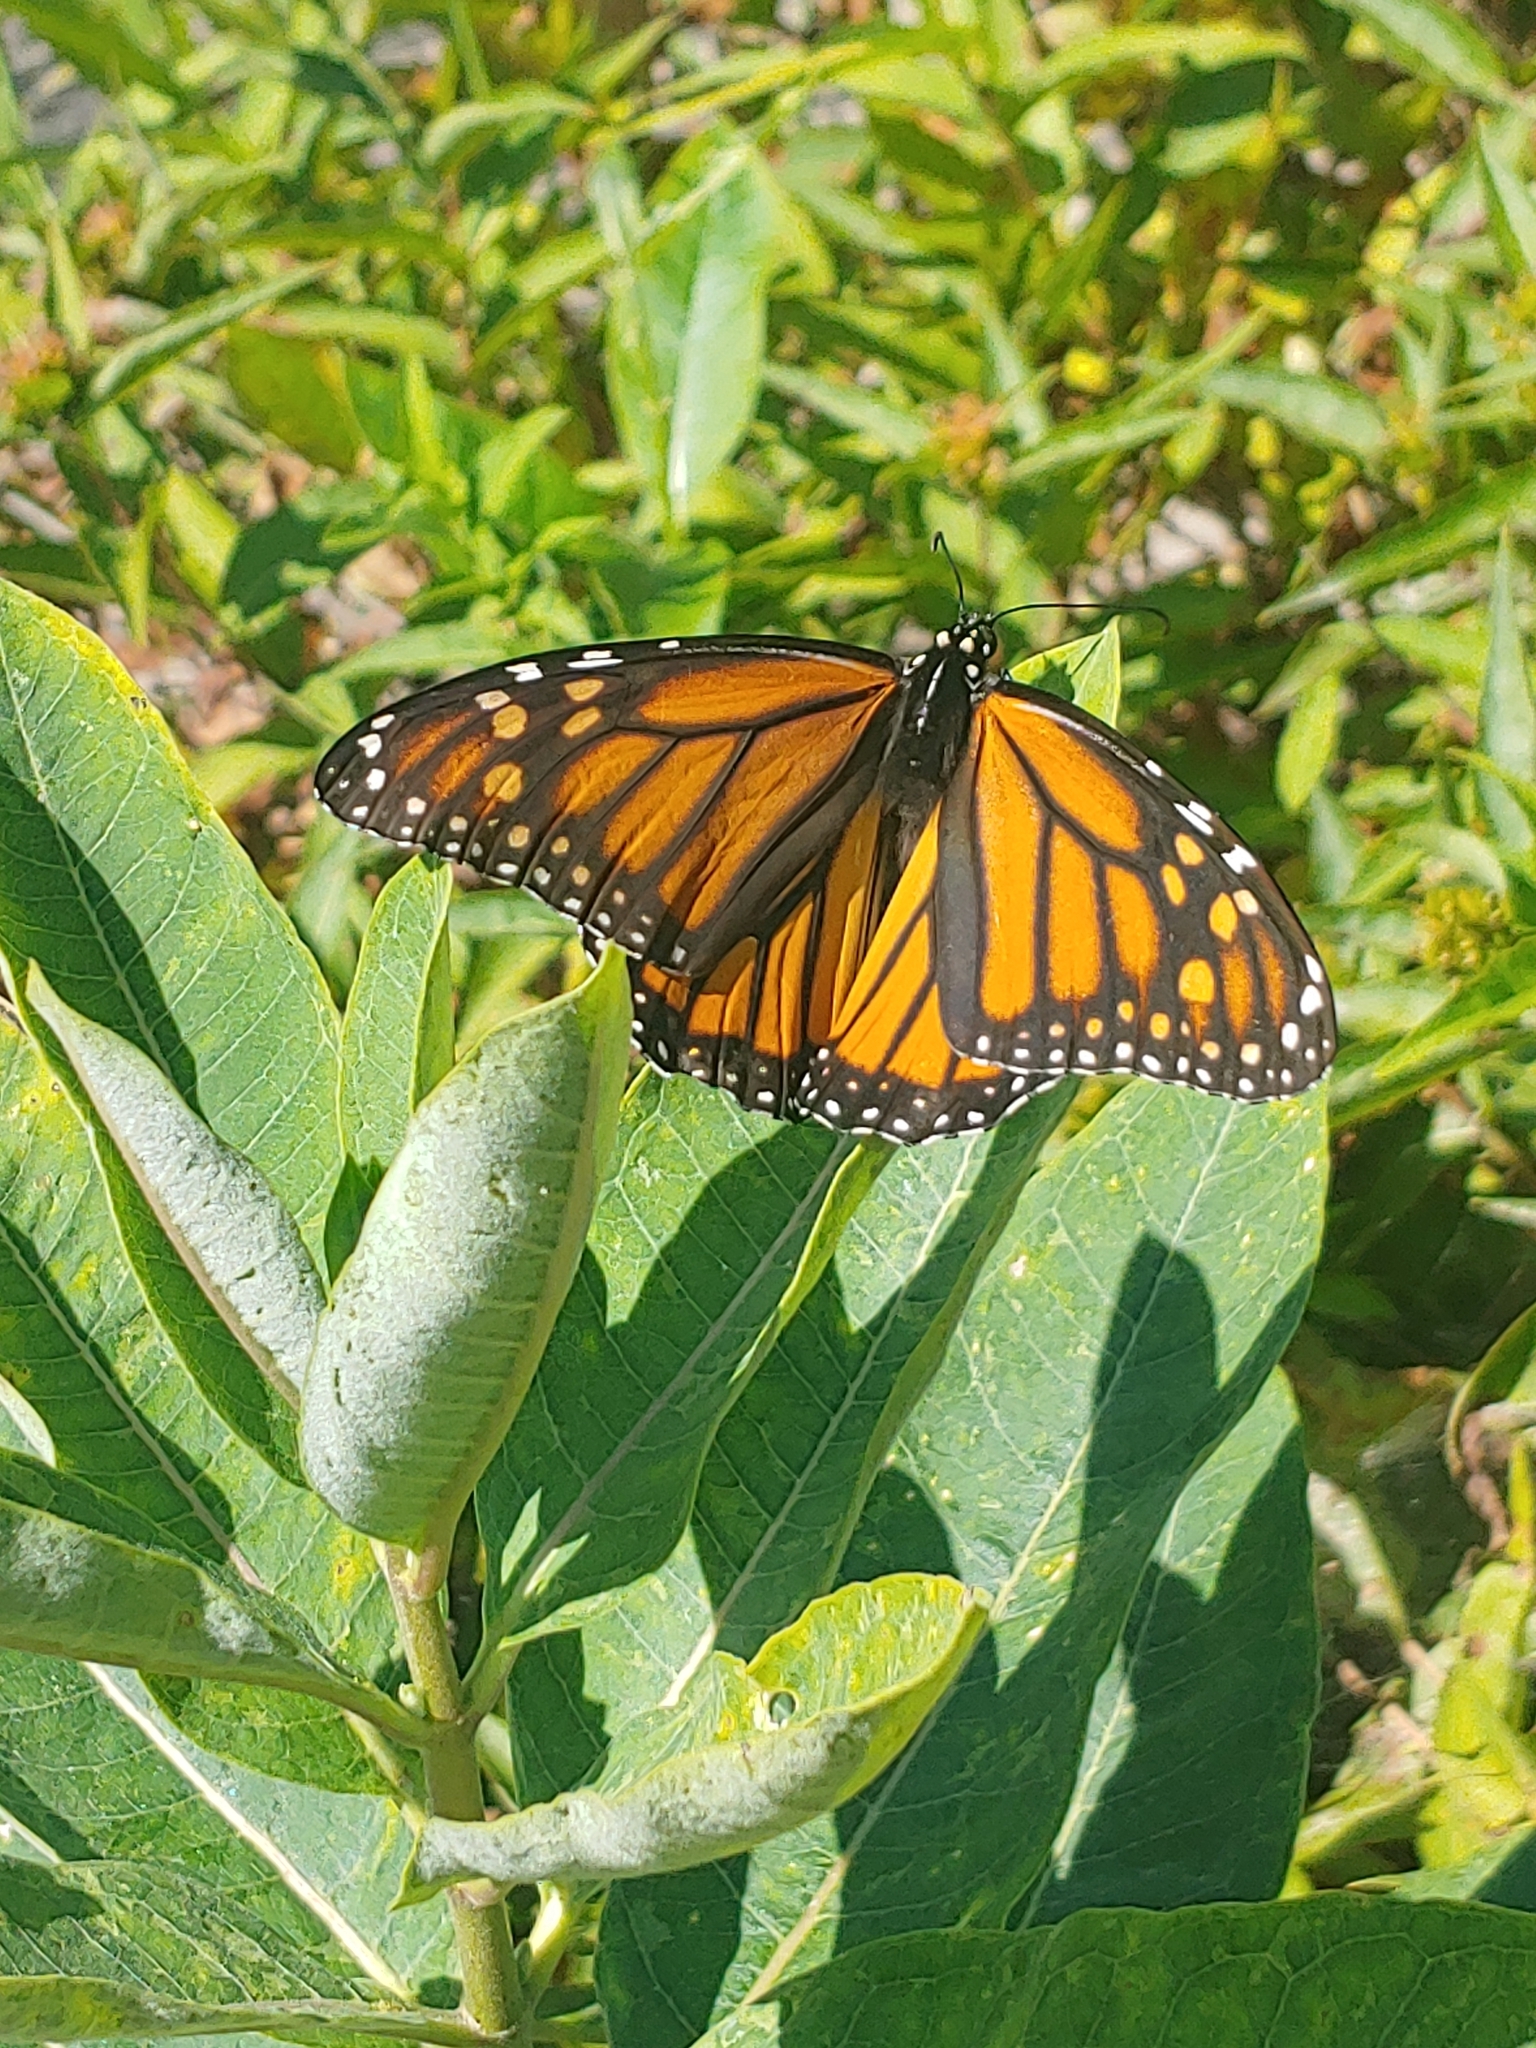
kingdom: Animalia
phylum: Arthropoda
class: Insecta
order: Lepidoptera
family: Nymphalidae
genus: Danaus
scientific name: Danaus plexippus
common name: Monarch
